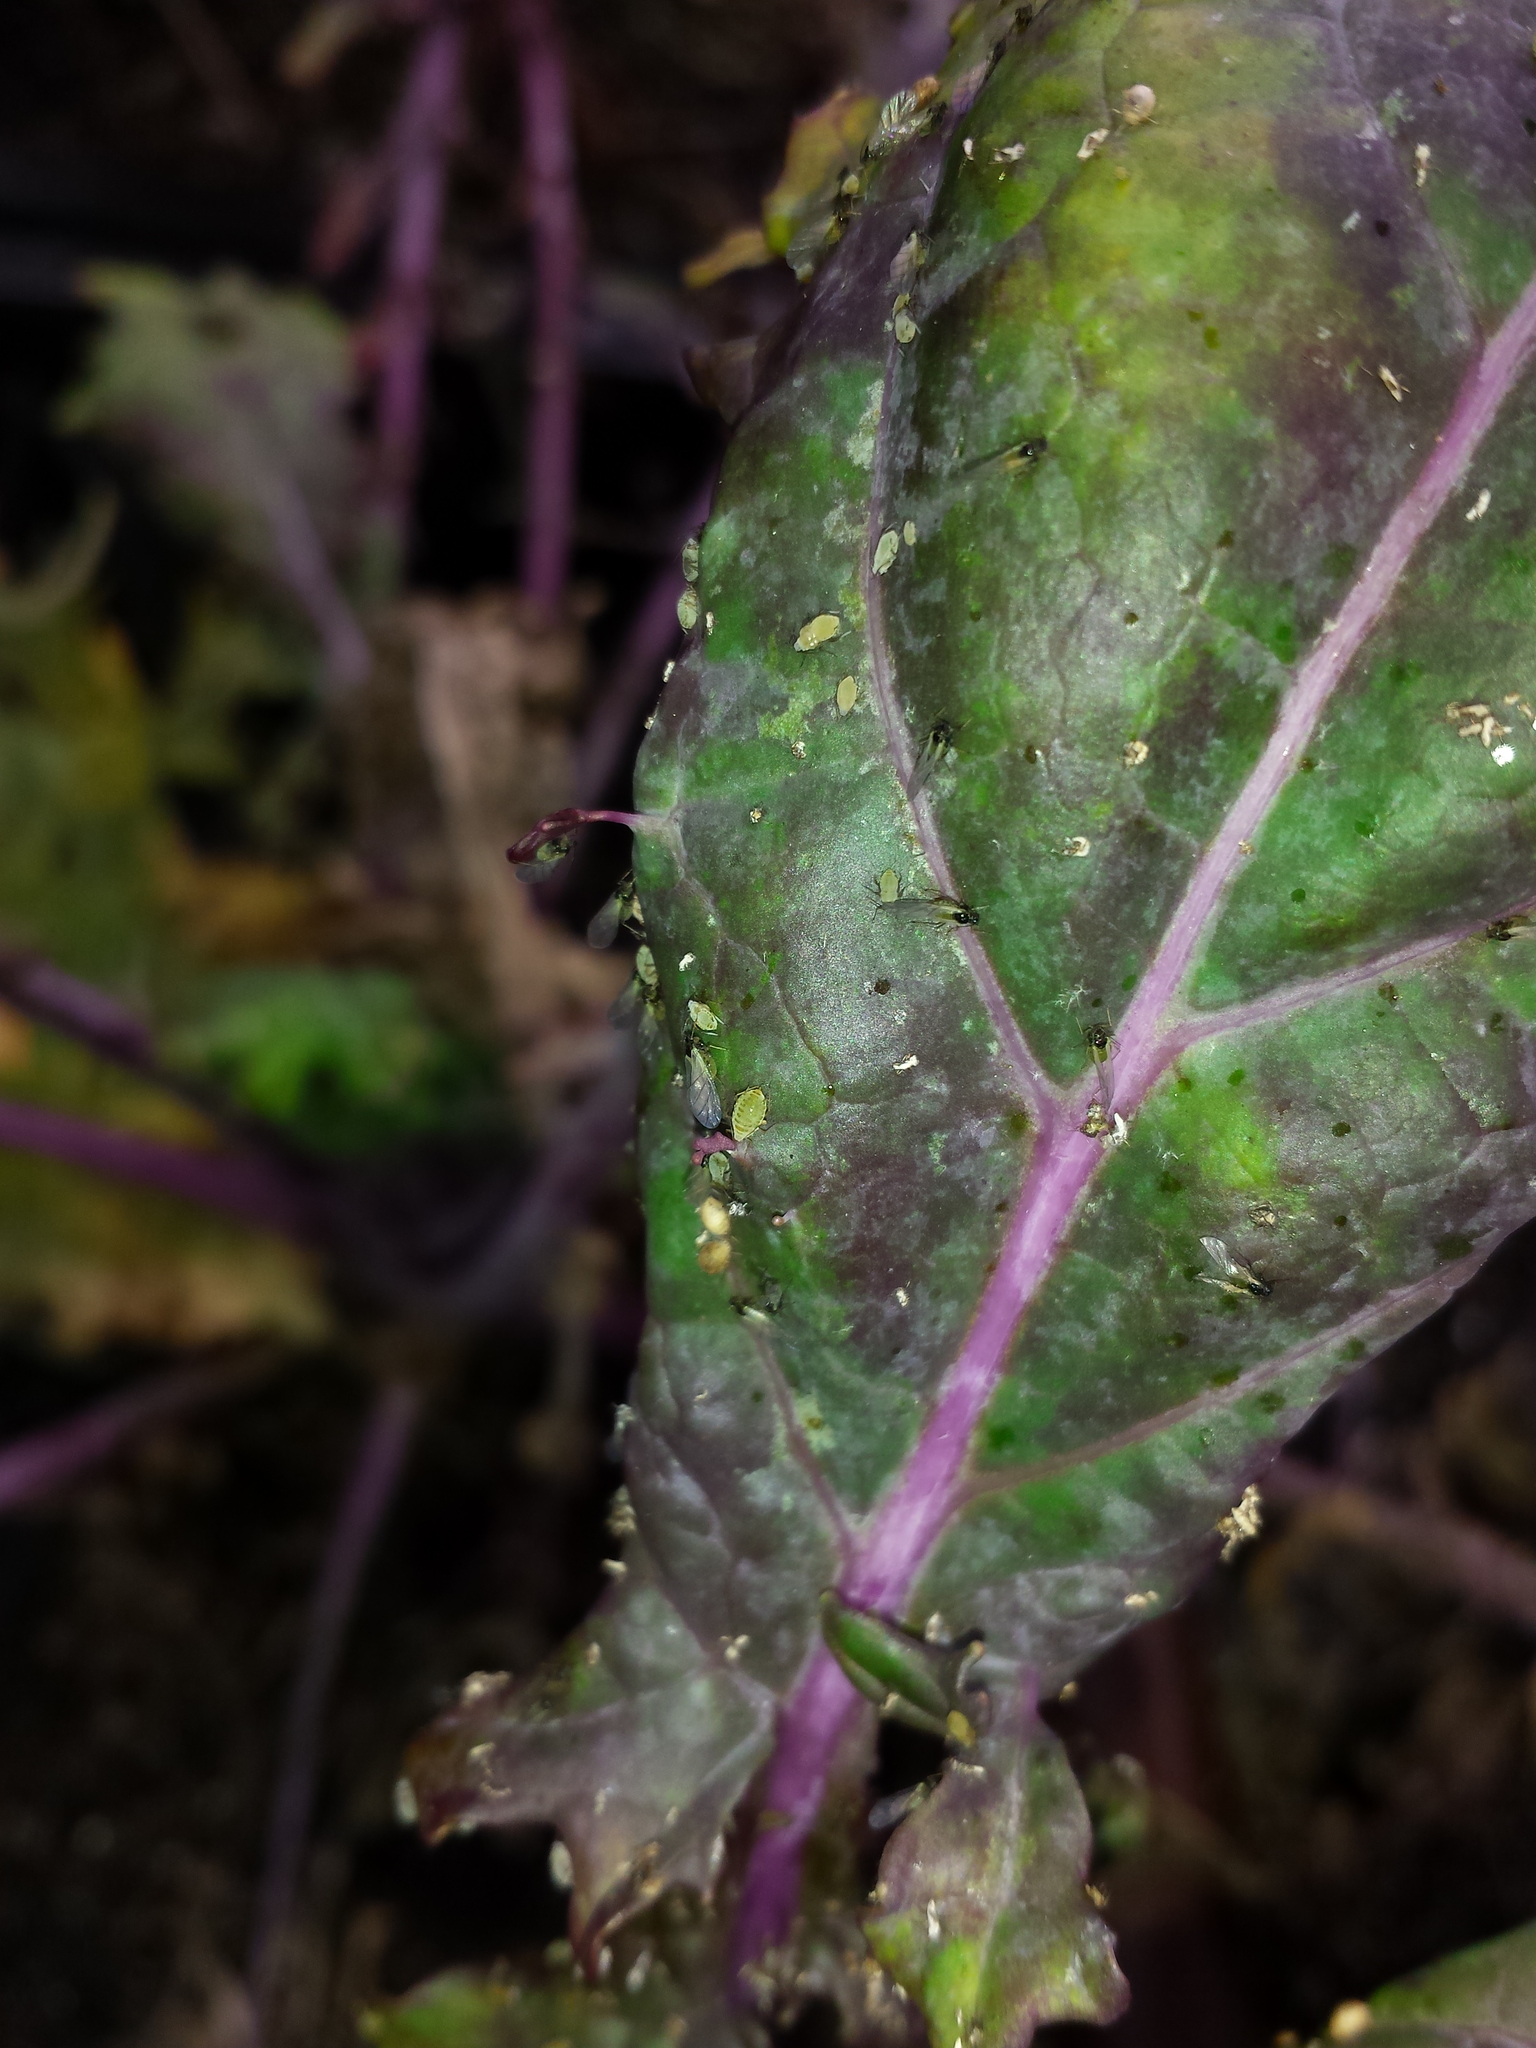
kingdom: Animalia
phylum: Arthropoda
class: Insecta
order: Hemiptera
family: Aphididae
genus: Lipaphis
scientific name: Lipaphis pseudobrassicae
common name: Turnip aphid
